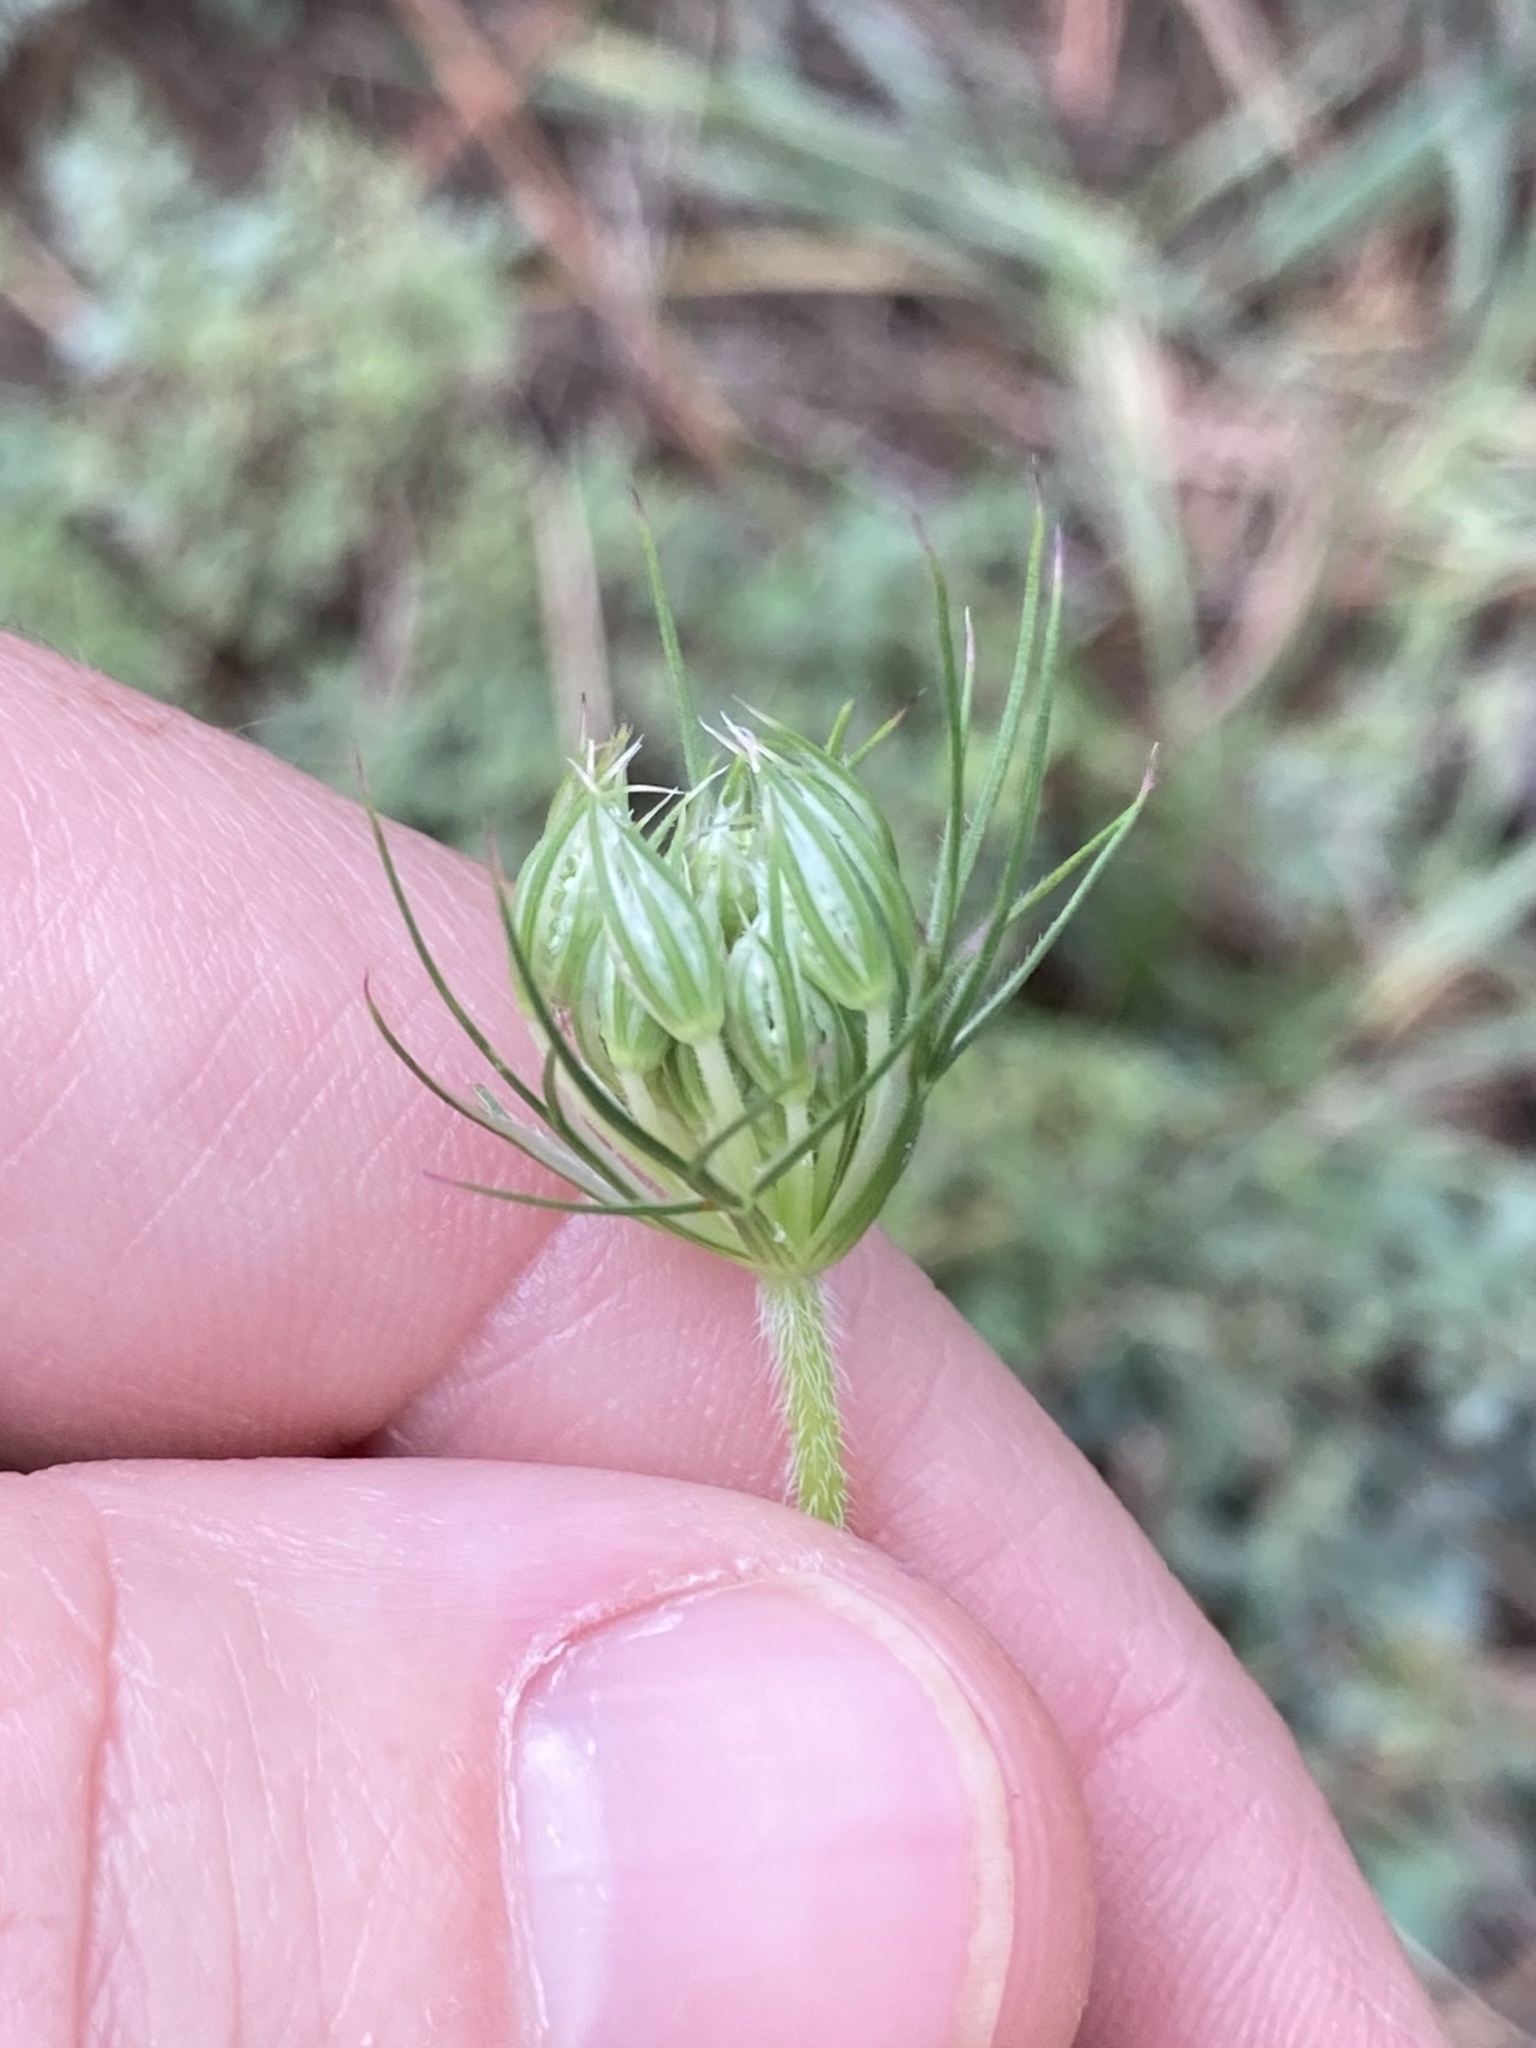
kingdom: Plantae
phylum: Tracheophyta
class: Magnoliopsida
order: Apiales
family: Apiaceae
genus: Daucus
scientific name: Daucus carota
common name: Wild carrot
